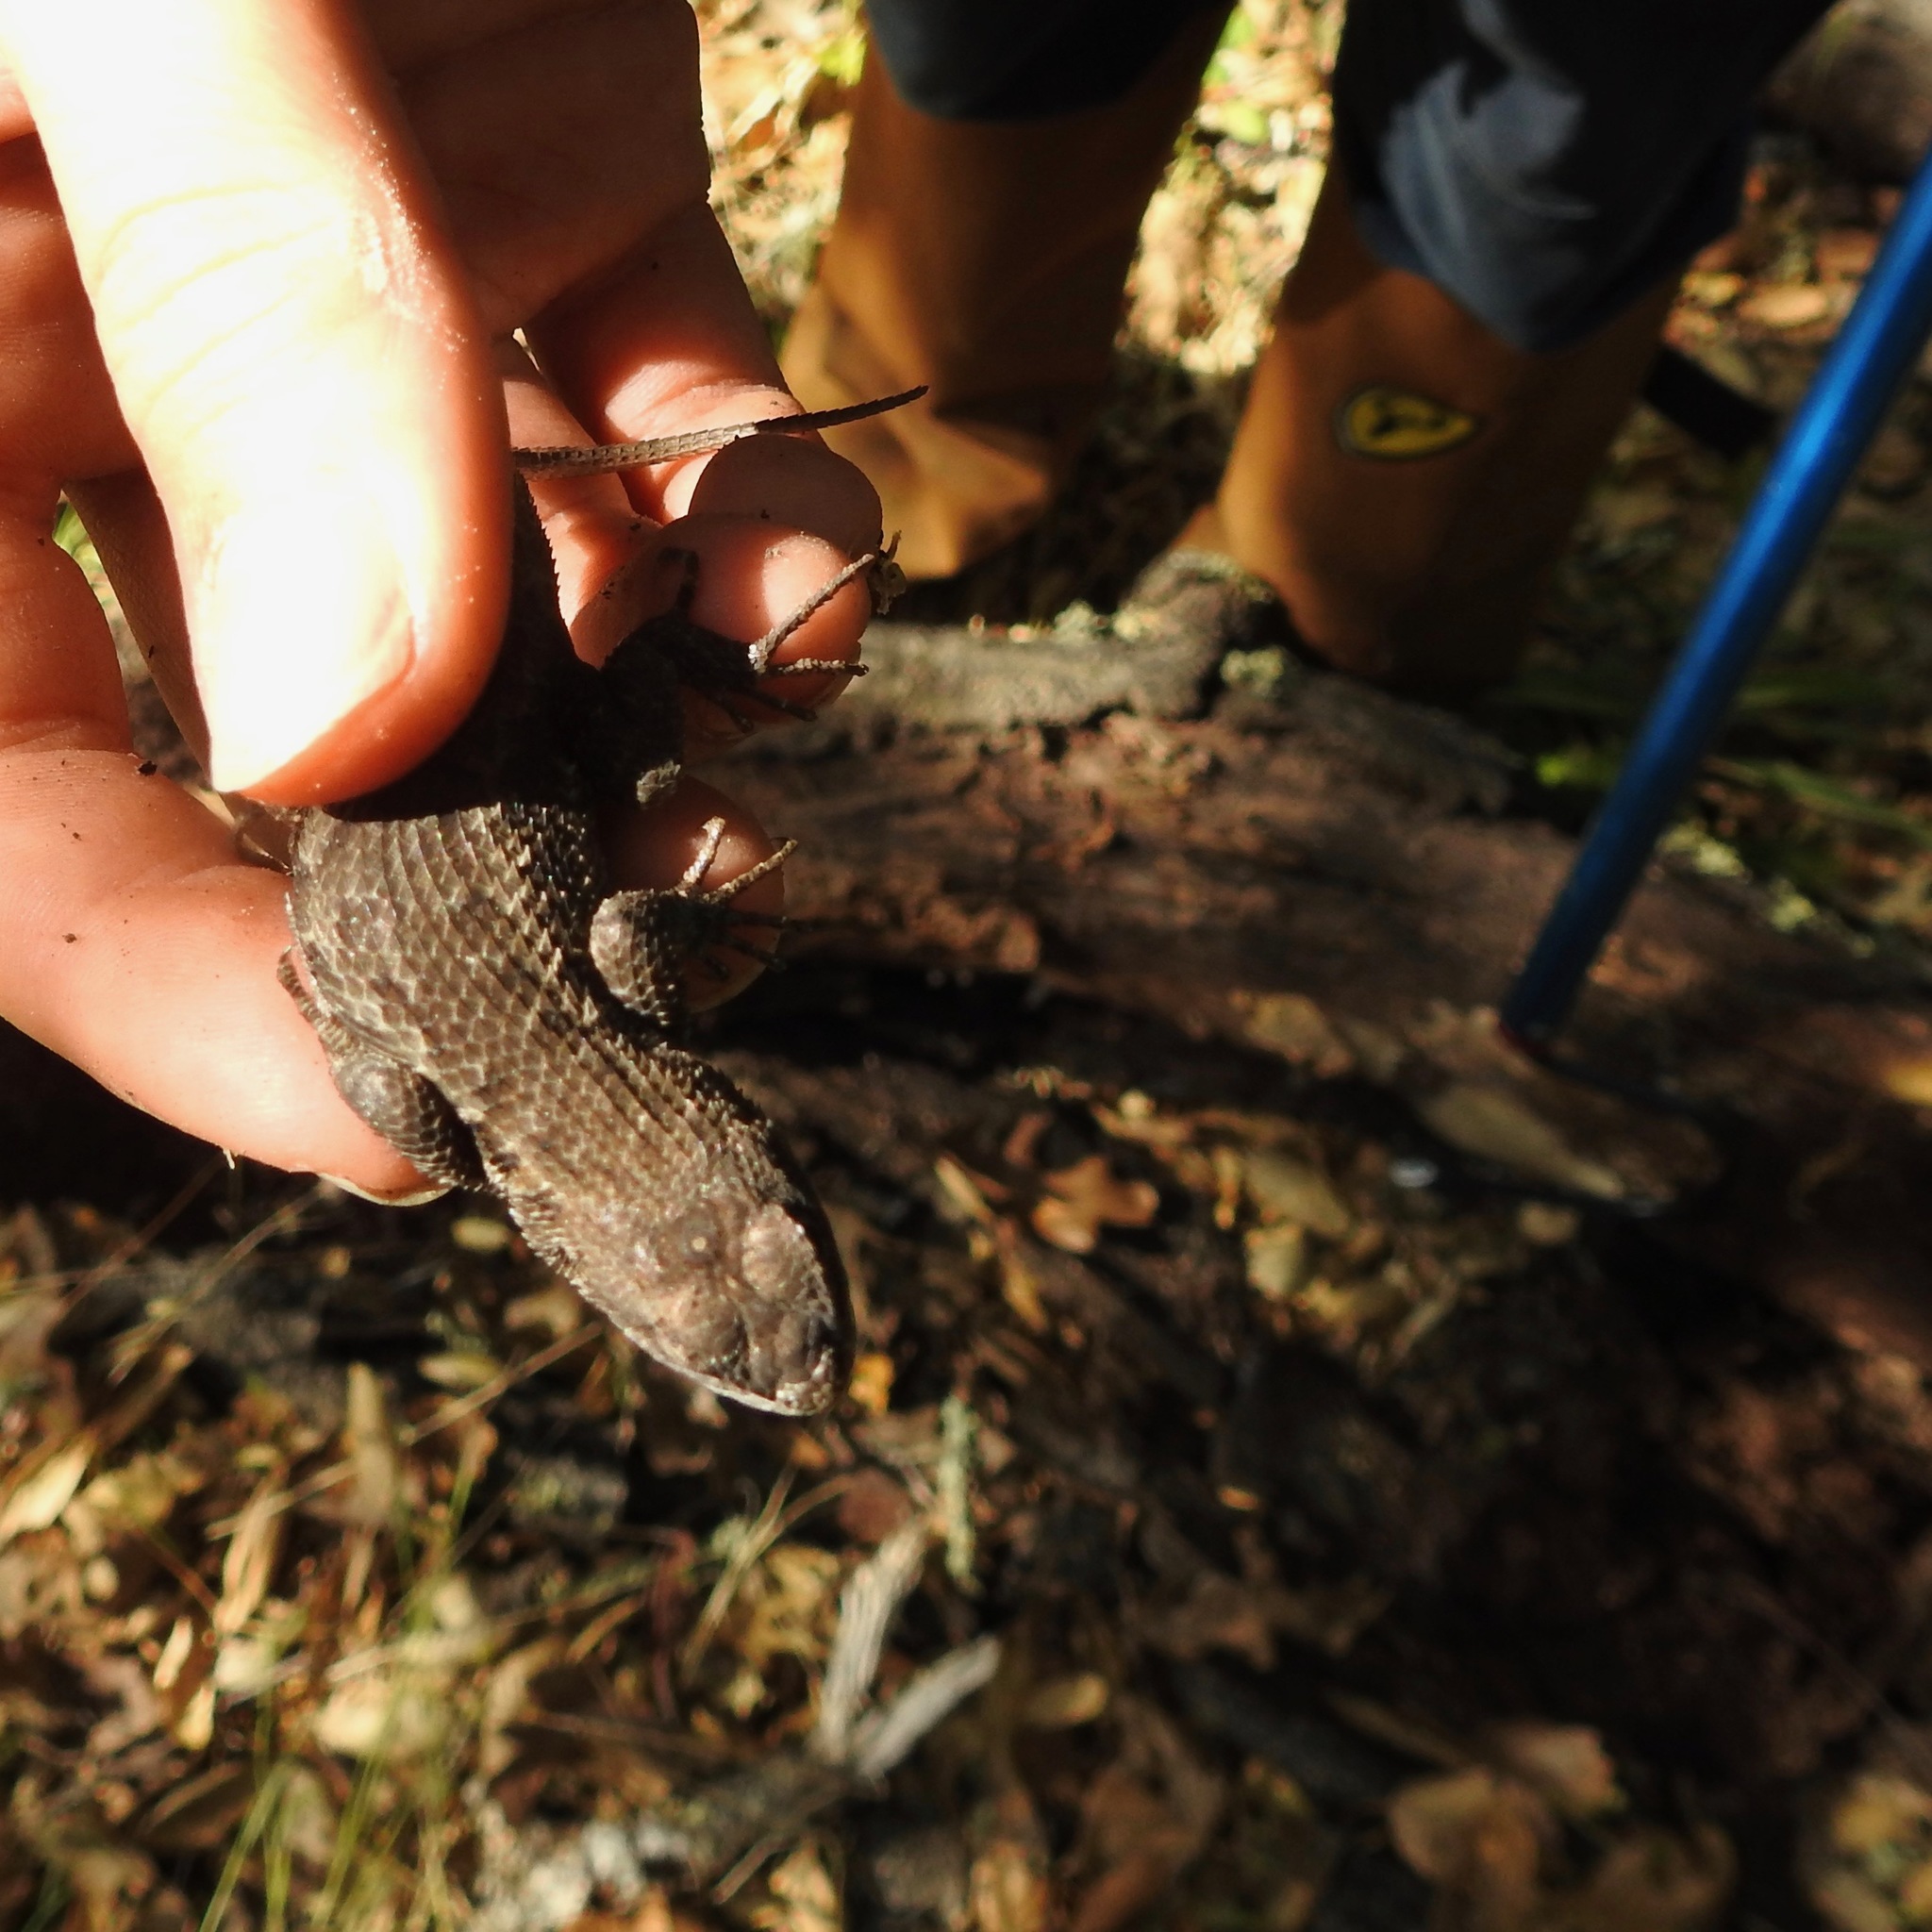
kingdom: Animalia
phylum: Chordata
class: Squamata
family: Phrynosomatidae
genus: Sceloporus
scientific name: Sceloporus occidentalis
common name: Western fence lizard
